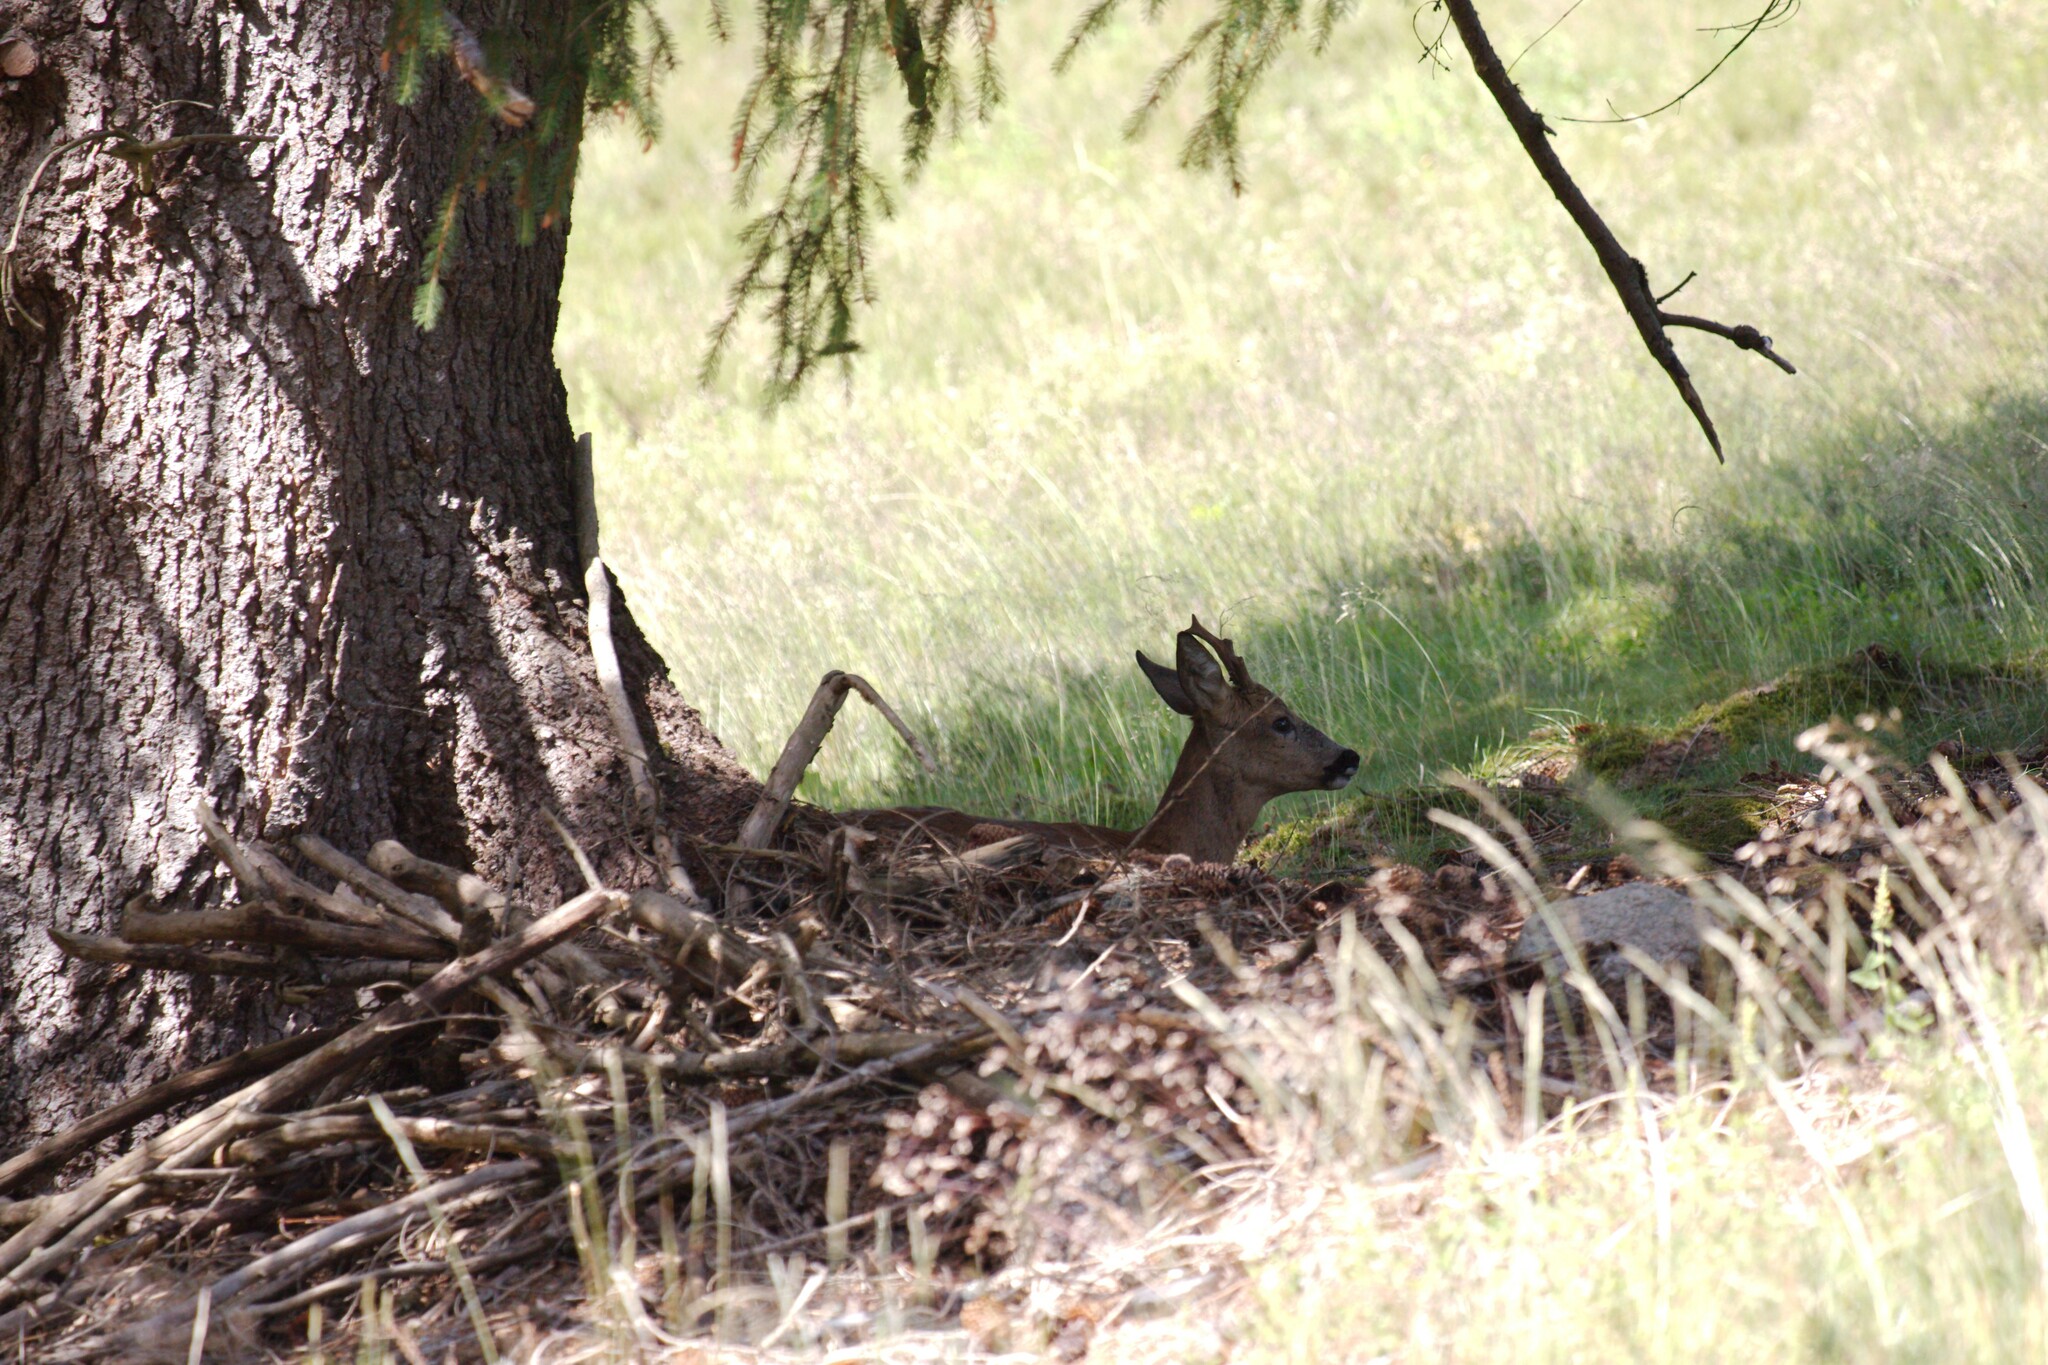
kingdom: Animalia
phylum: Chordata
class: Mammalia
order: Artiodactyla
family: Cervidae
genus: Capreolus
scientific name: Capreolus capreolus
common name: Western roe deer
